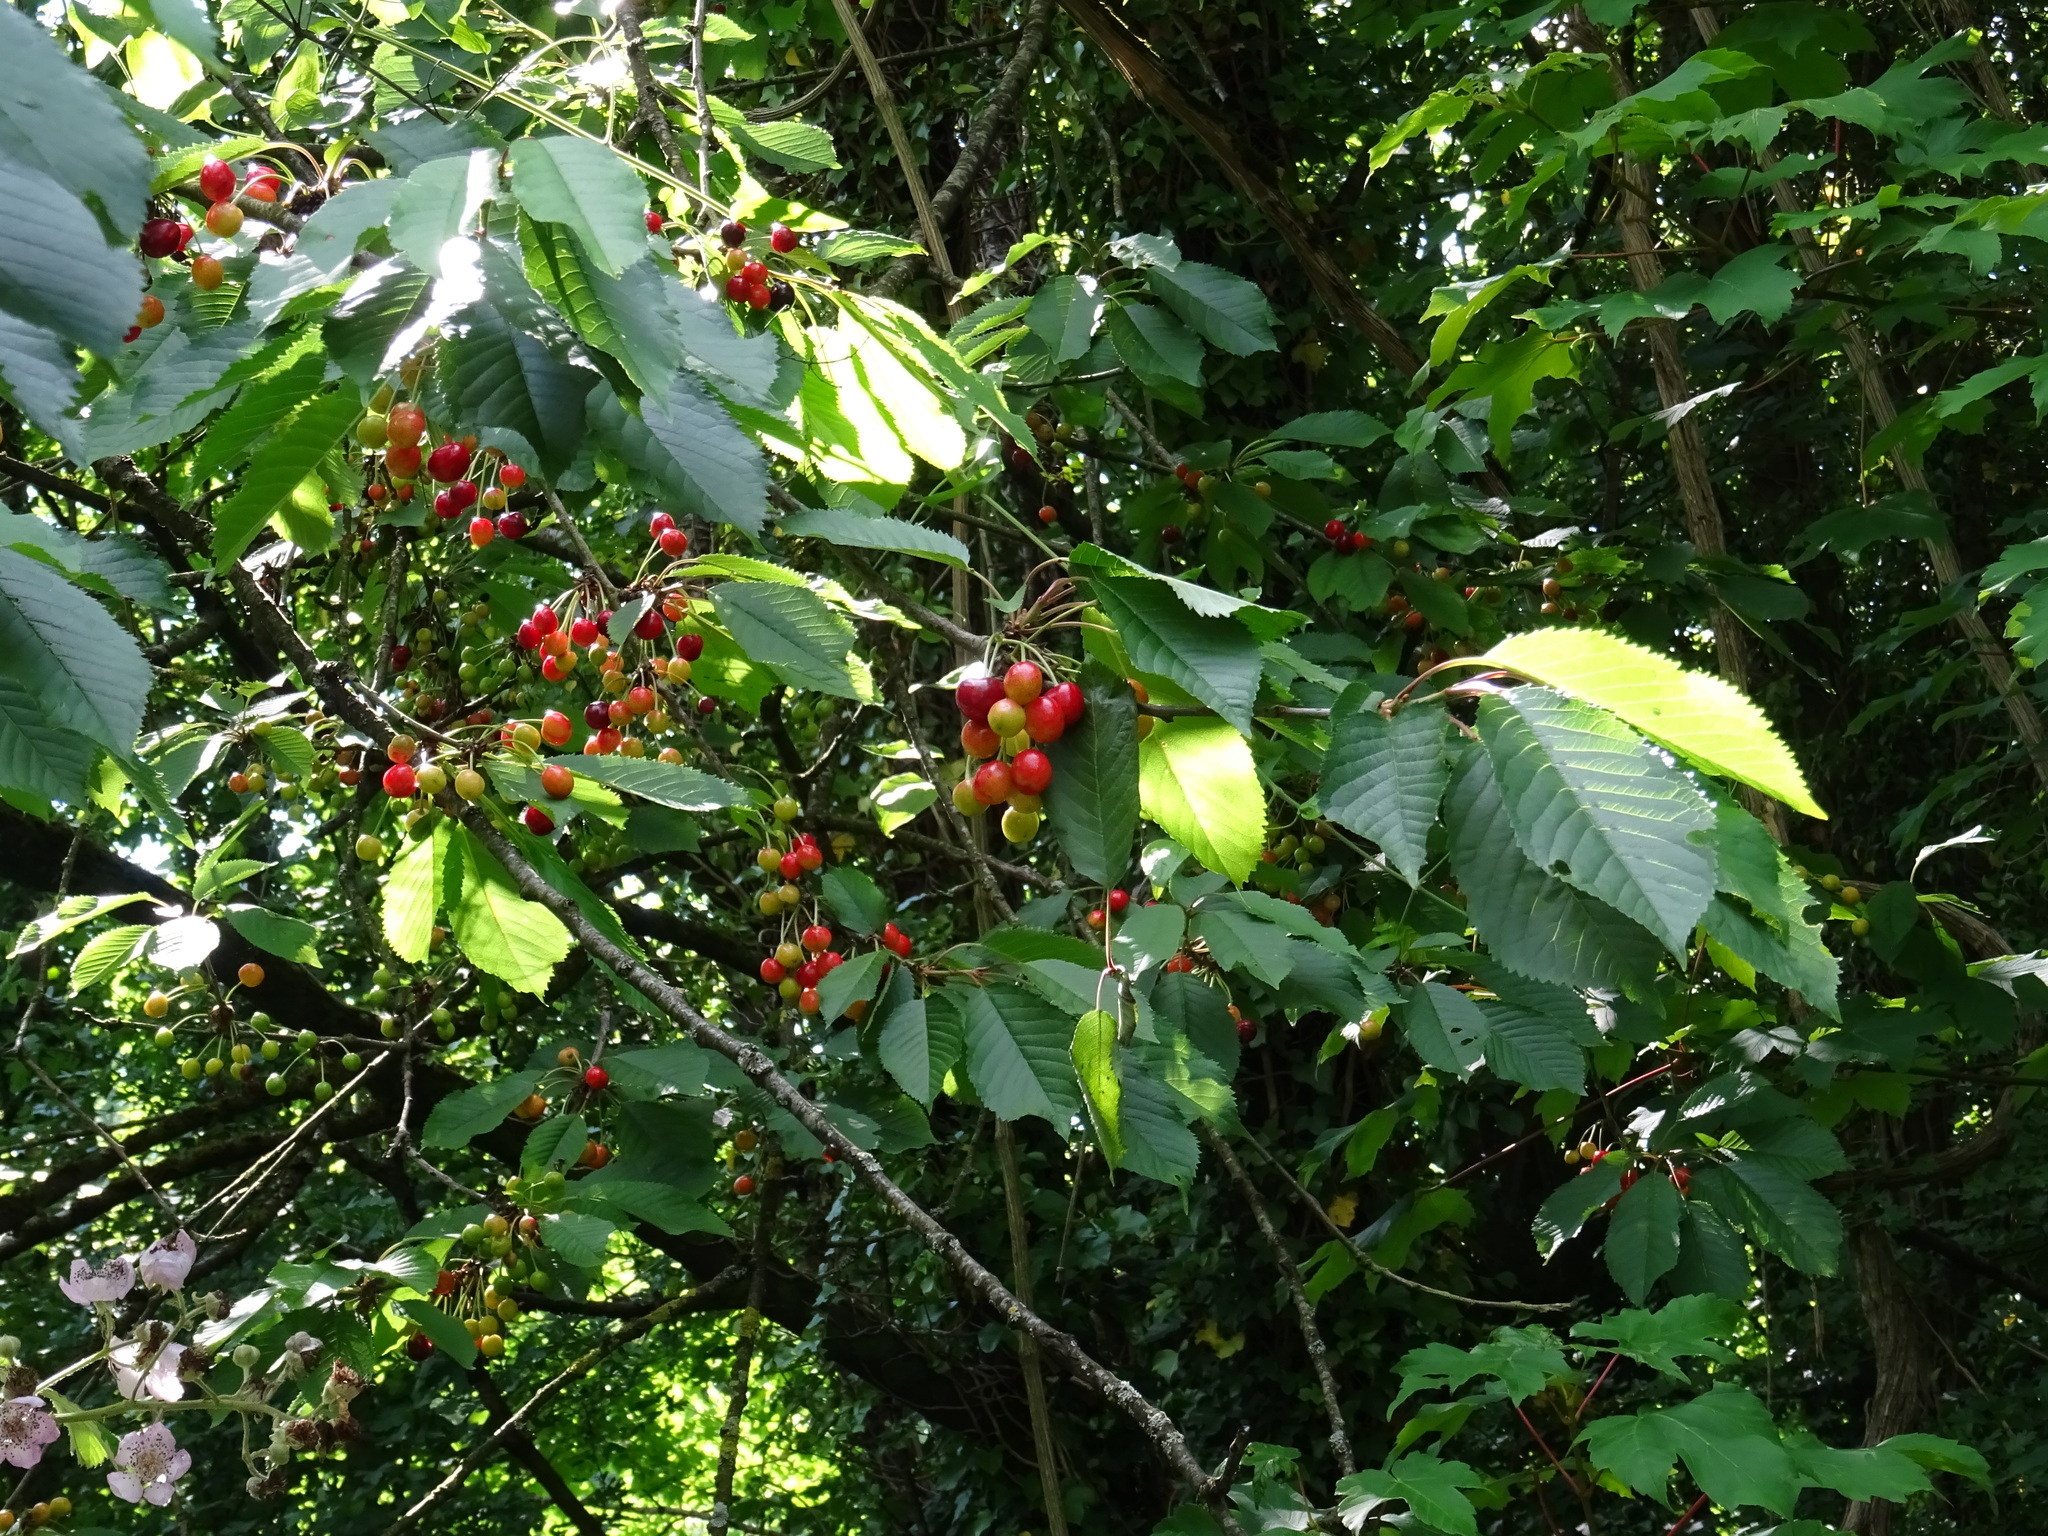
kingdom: Plantae
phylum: Tracheophyta
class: Magnoliopsida
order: Rosales
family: Rosaceae
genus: Prunus
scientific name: Prunus avium
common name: Sweet cherry
